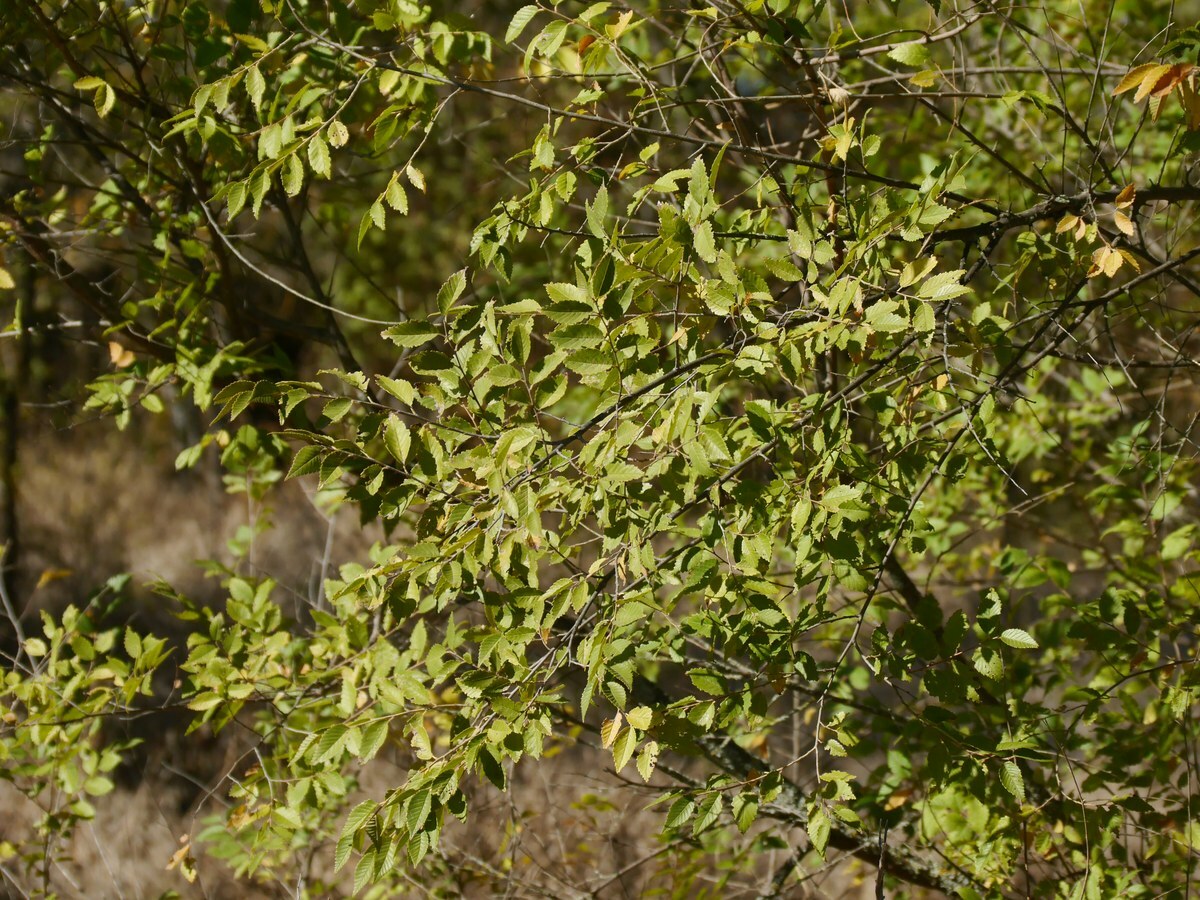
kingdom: Plantae
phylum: Tracheophyta
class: Magnoliopsida
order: Rosales
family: Ulmaceae
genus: Ulmus
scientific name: Ulmus pumila
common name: Siberian elm
